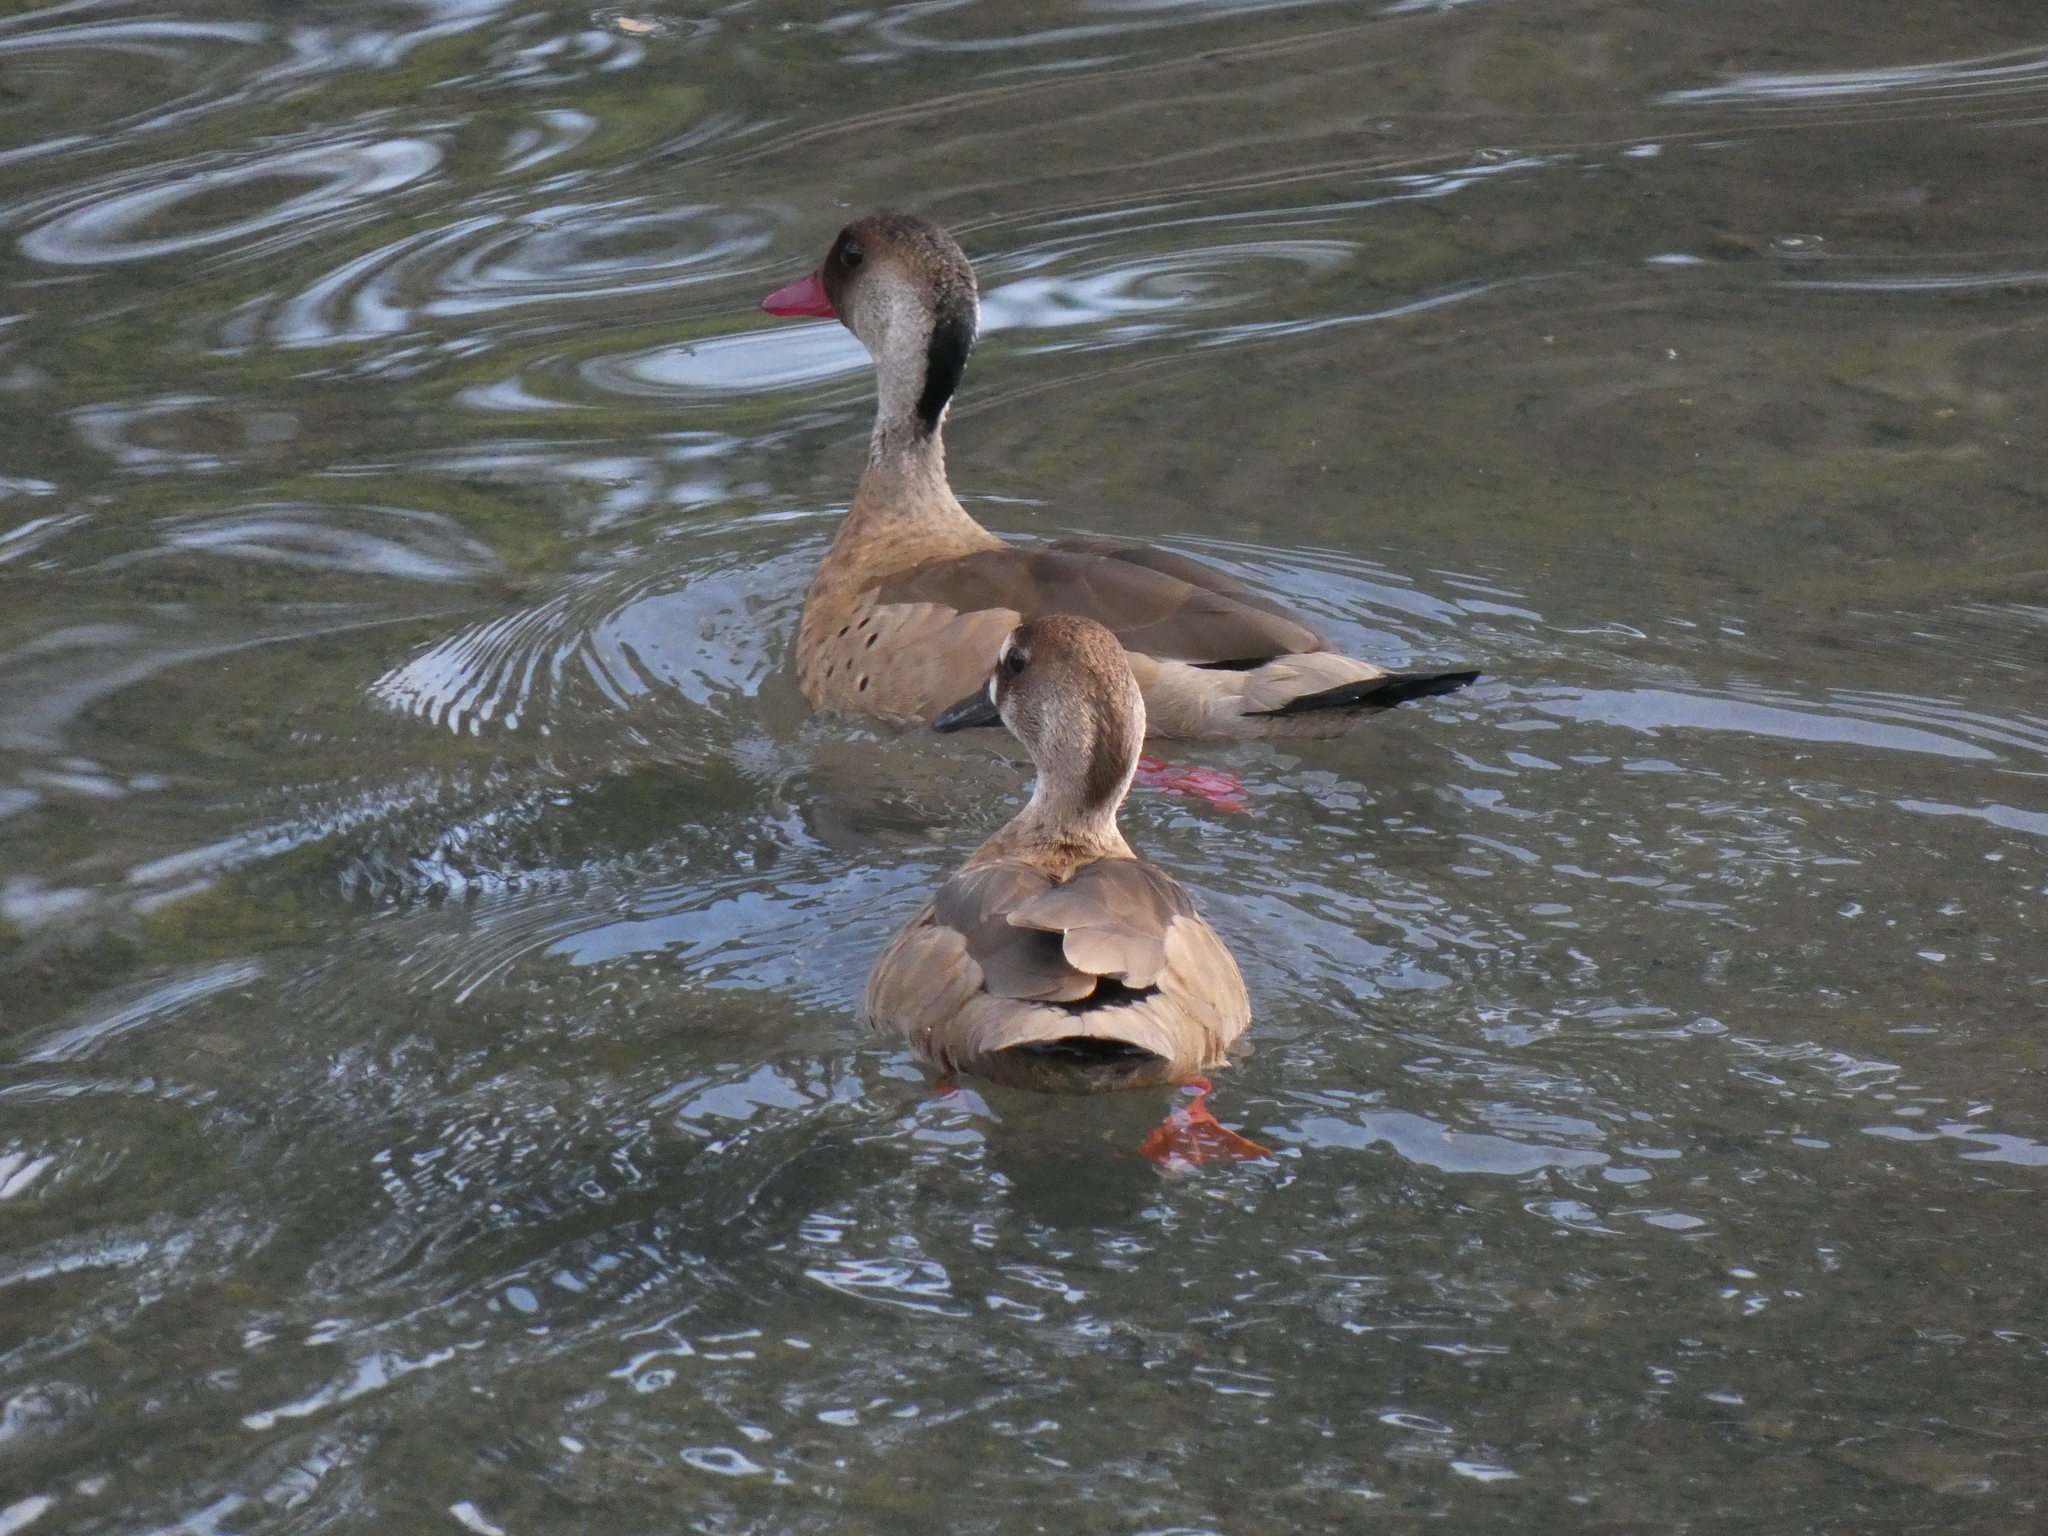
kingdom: Animalia
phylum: Chordata
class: Aves
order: Anseriformes
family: Anatidae
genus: Amazonetta
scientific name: Amazonetta brasiliensis
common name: Brazilian teal
